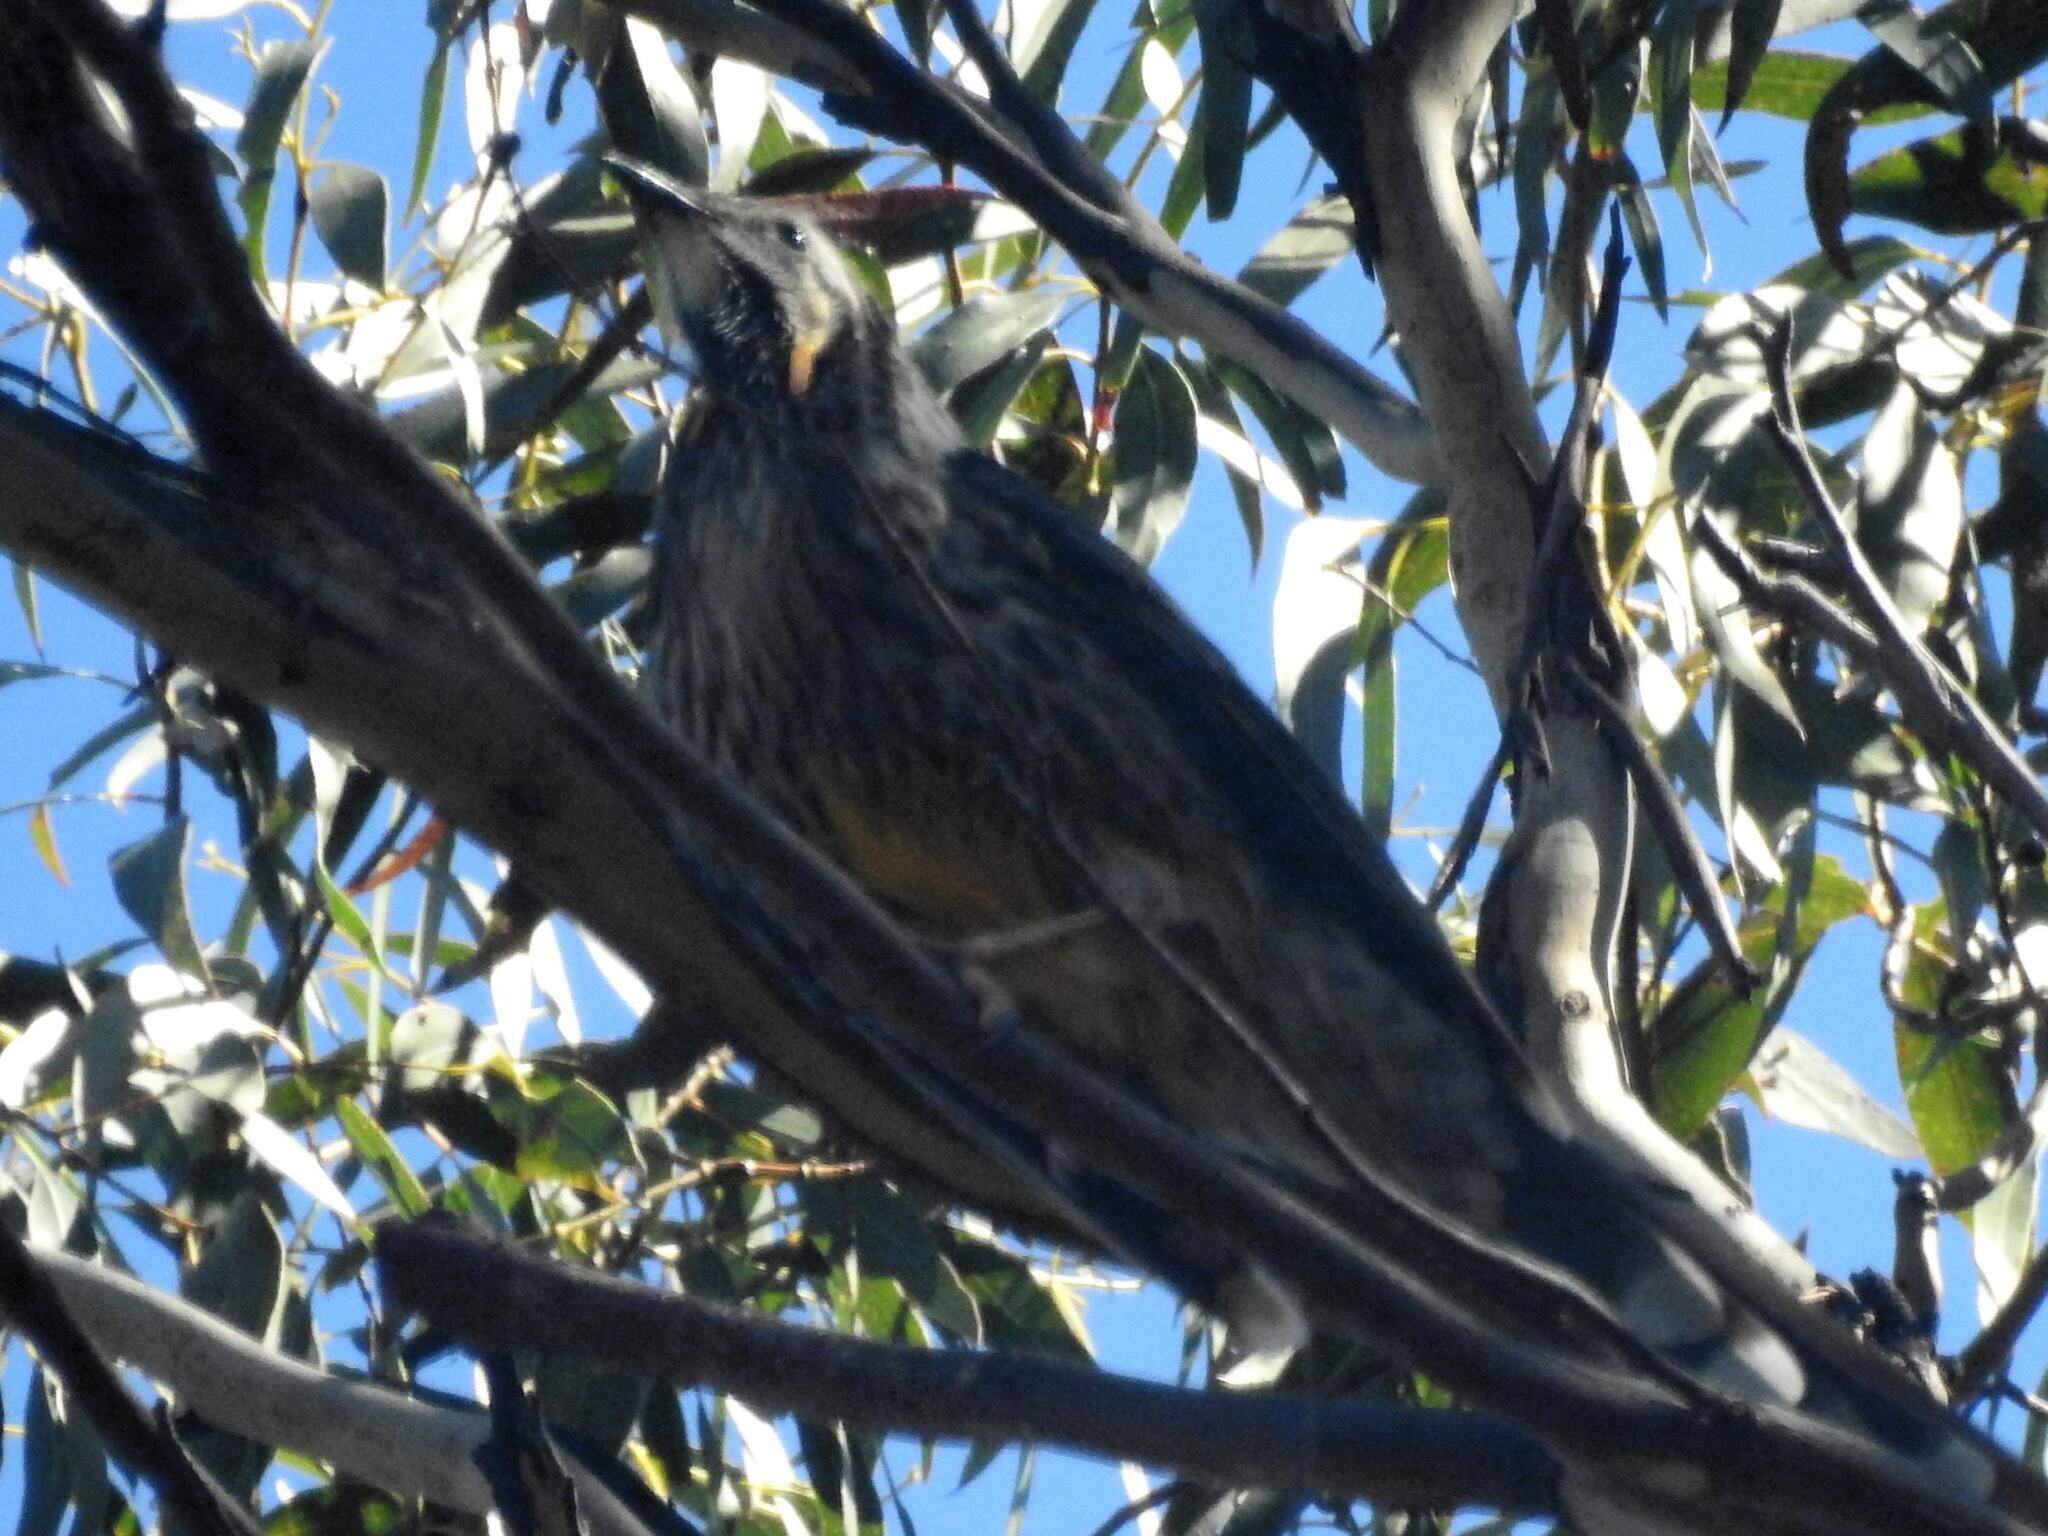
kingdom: Animalia
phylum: Chordata
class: Aves
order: Passeriformes
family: Meliphagidae
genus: Anthochaera
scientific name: Anthochaera paradoxa
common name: Yellow wattlebird
